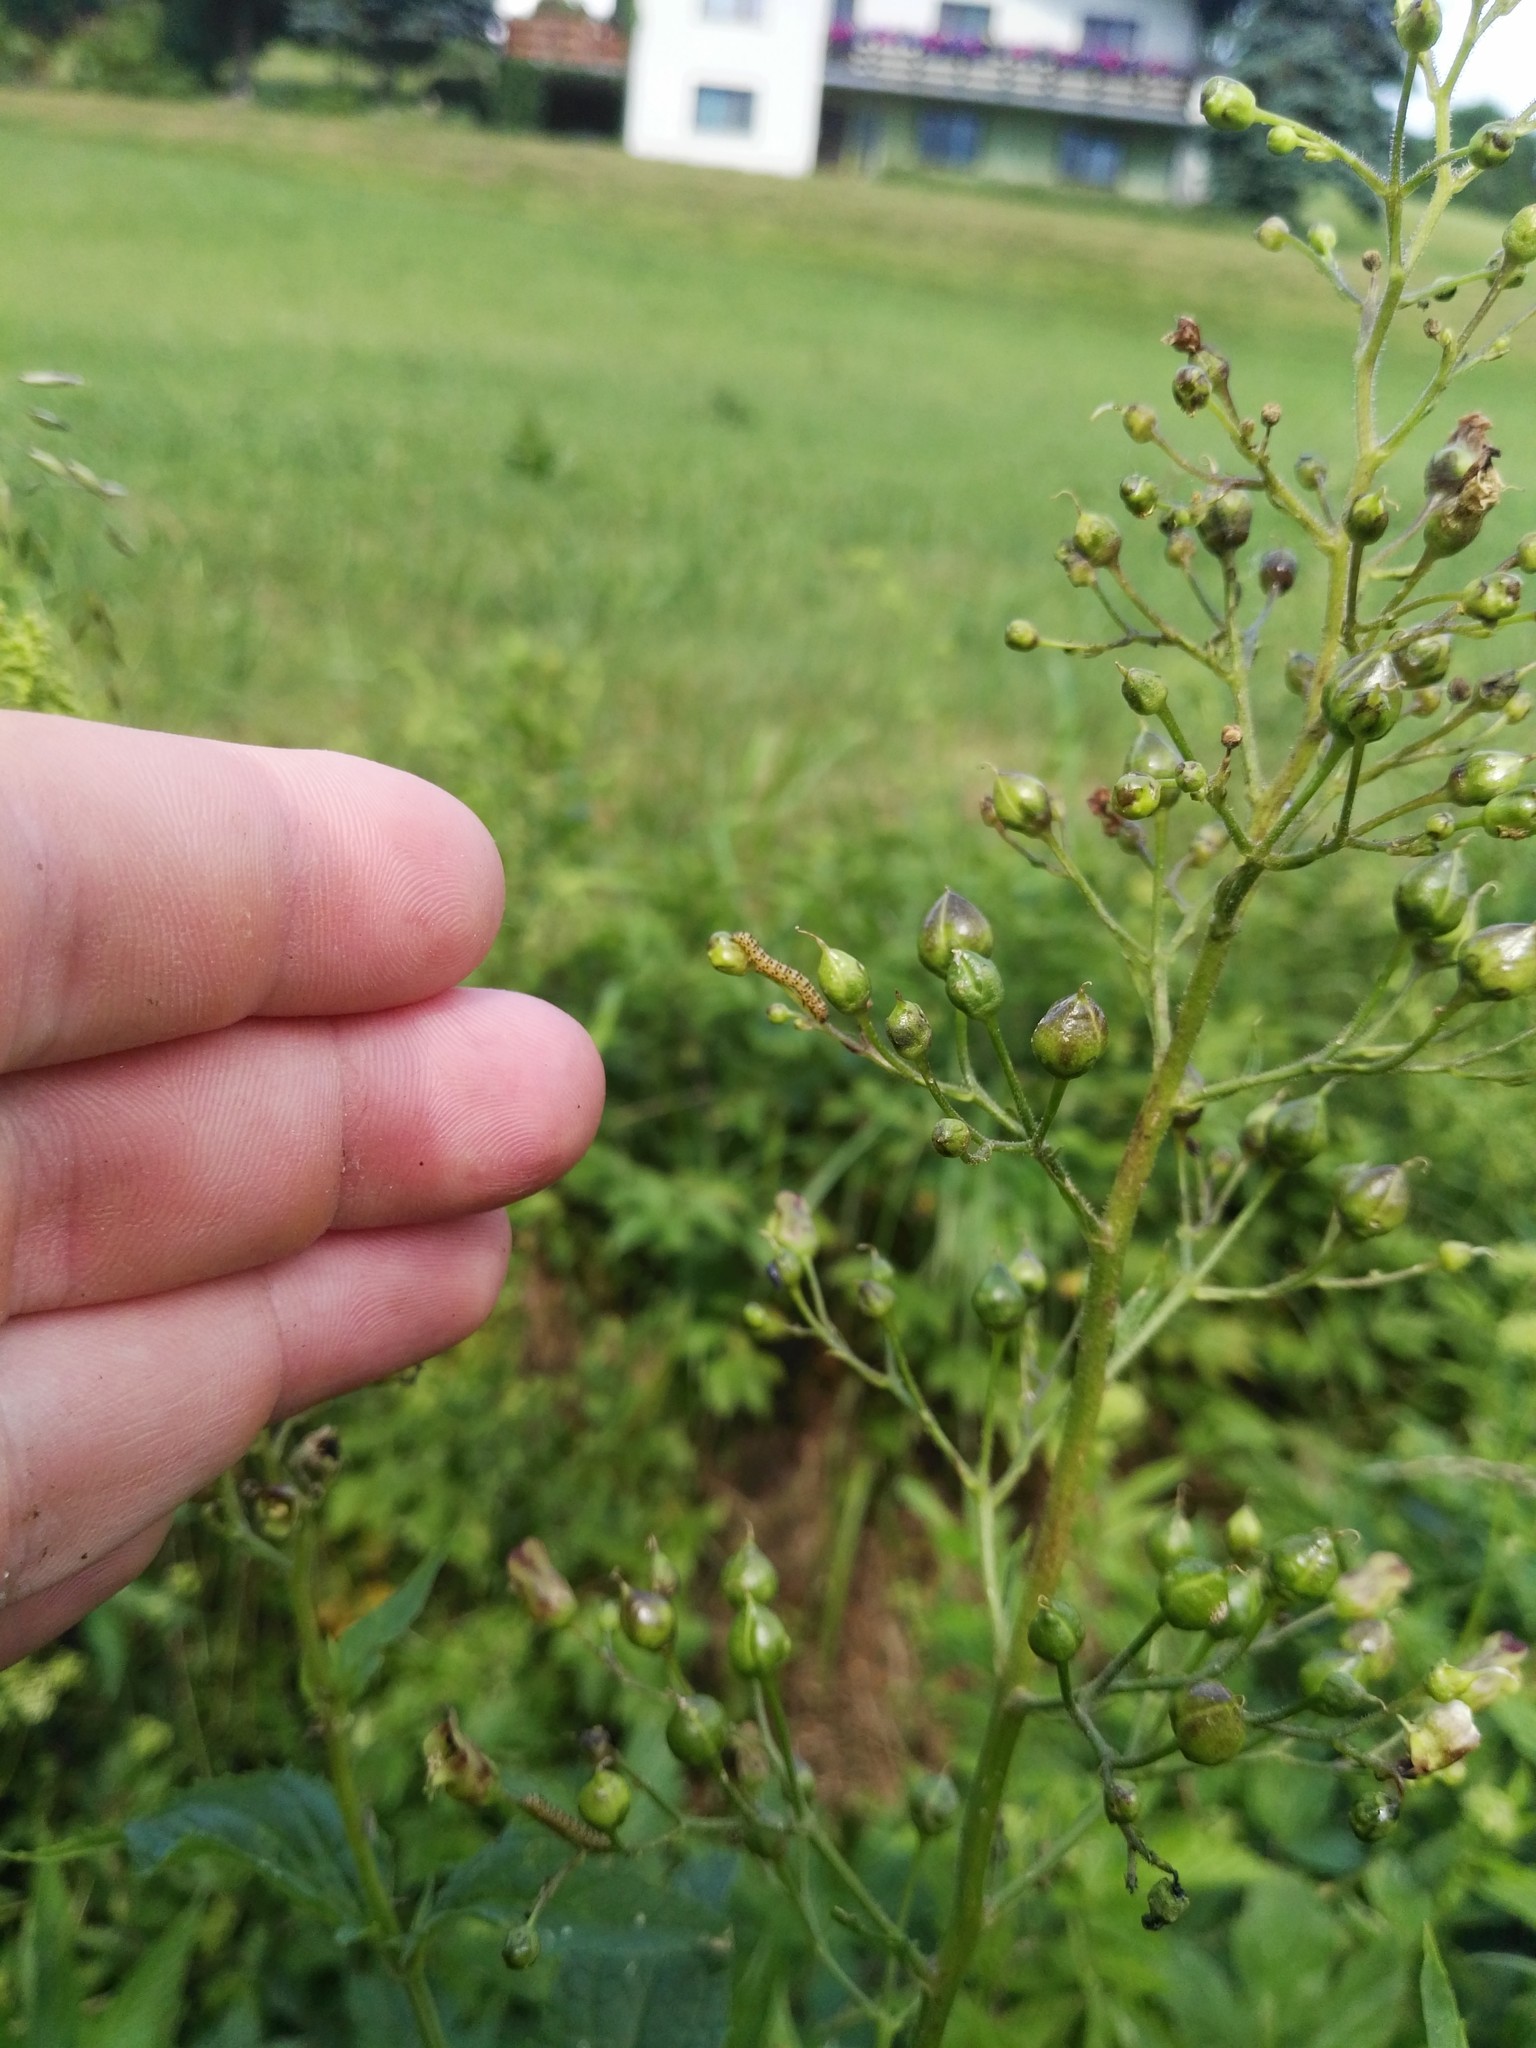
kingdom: Animalia
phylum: Arthropoda
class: Insecta
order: Lepidoptera
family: Noctuidae
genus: Shargacucullia
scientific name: Shargacucullia scrophulariae
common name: Water betony
